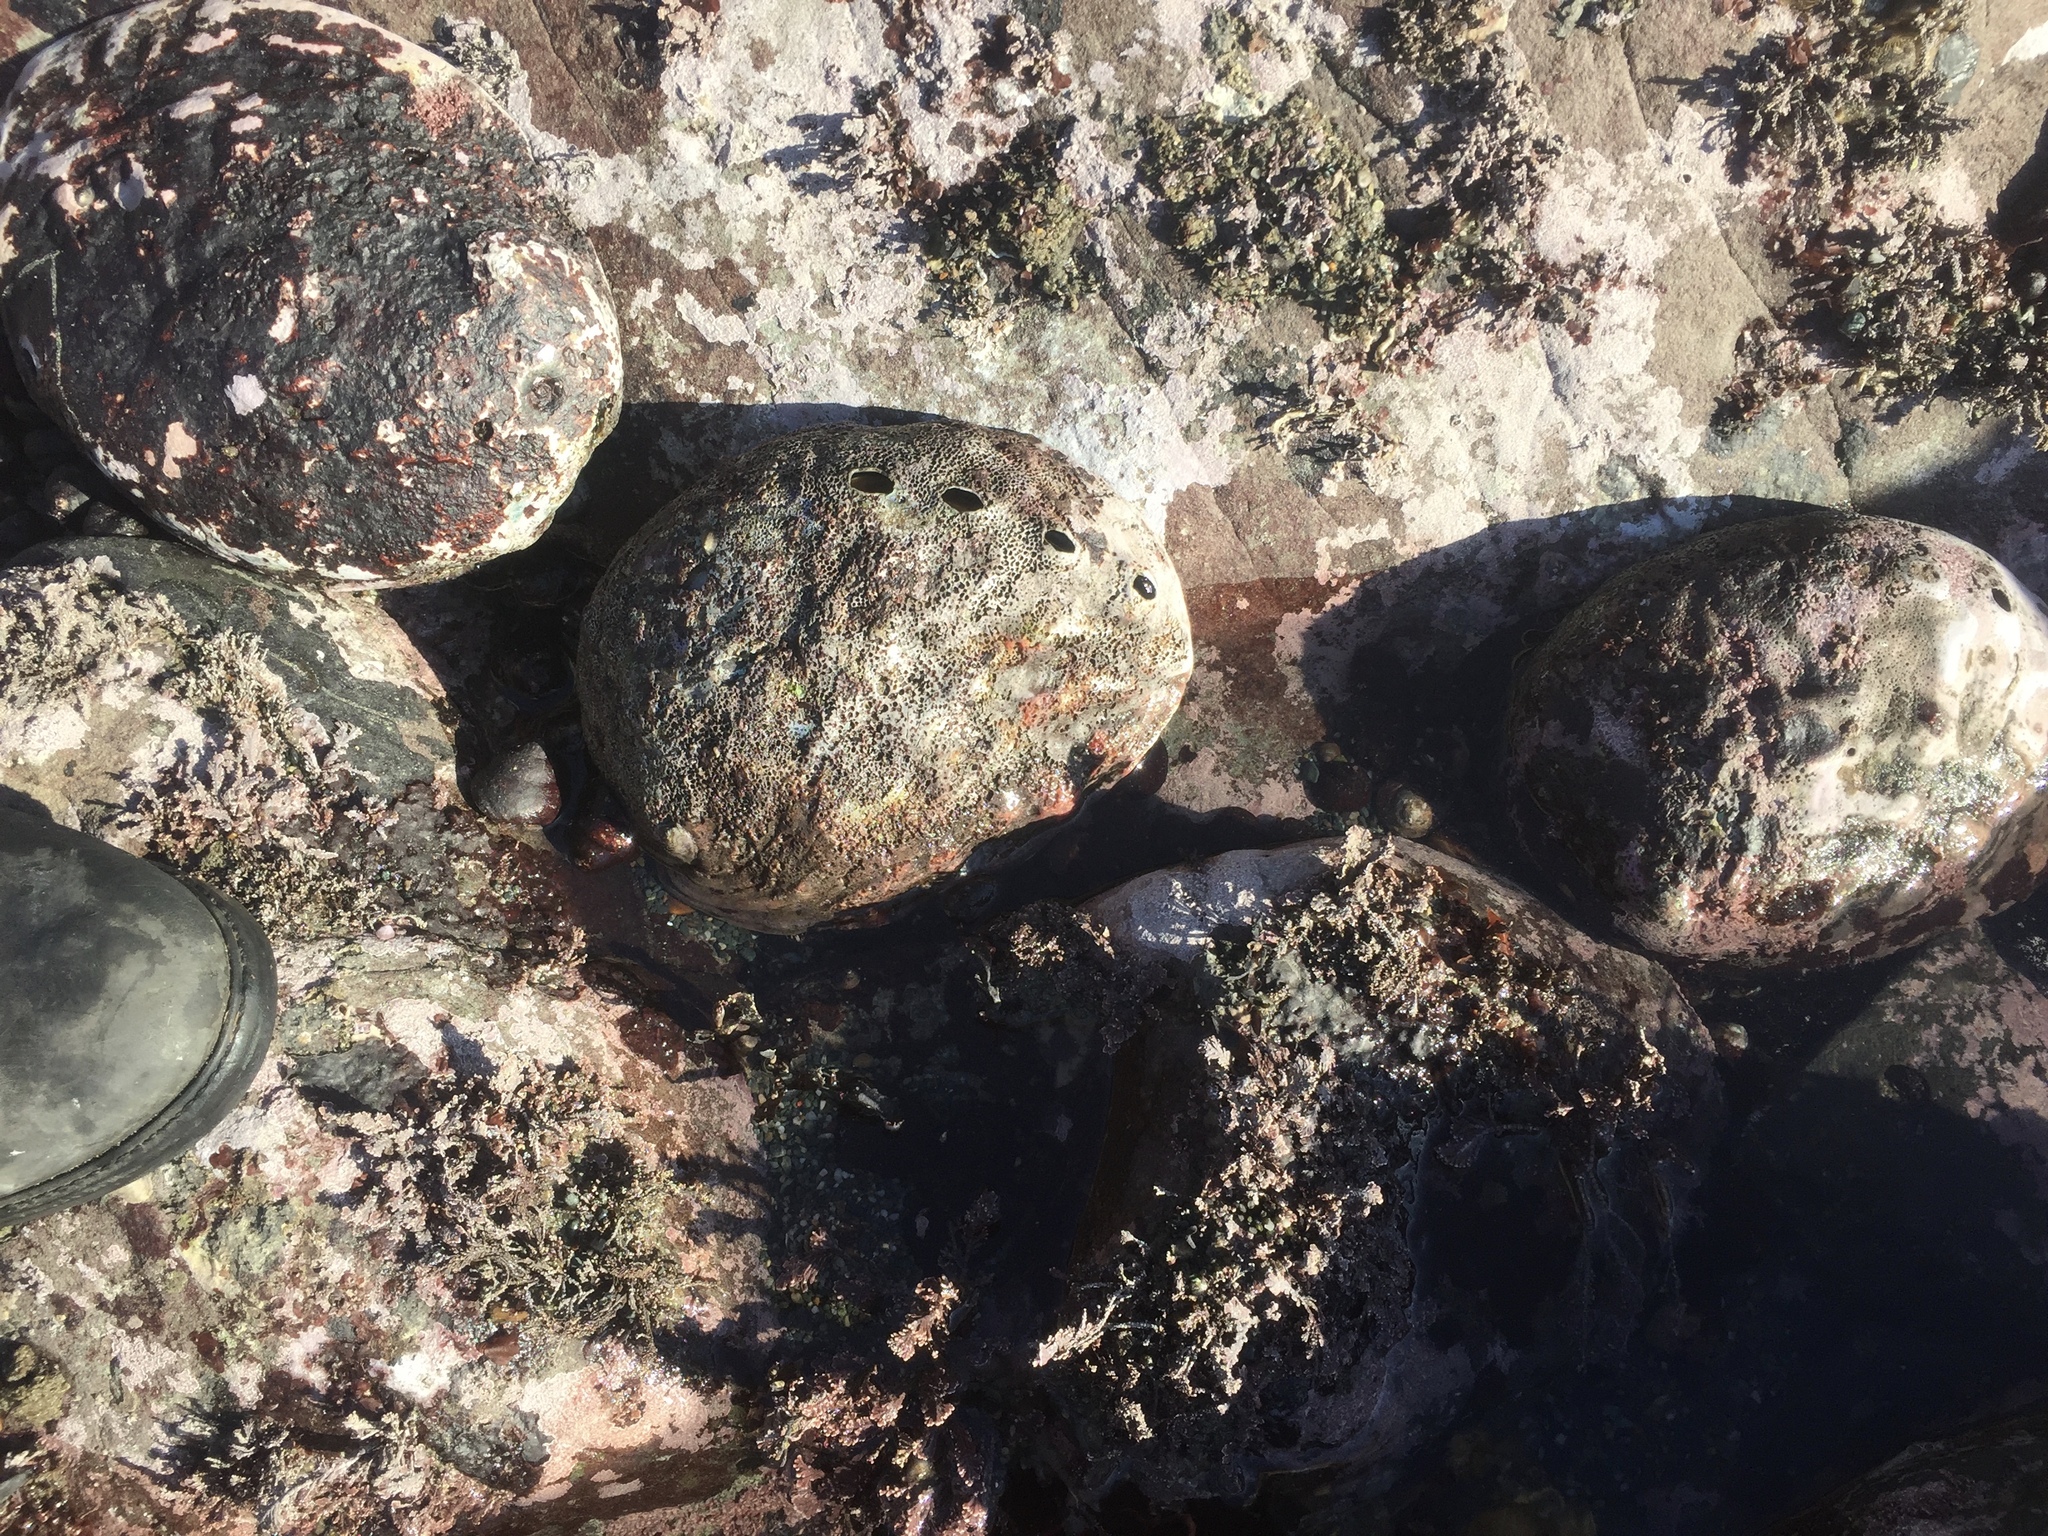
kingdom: Animalia
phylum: Mollusca
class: Gastropoda
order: Lepetellida
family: Haliotidae
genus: Haliotis
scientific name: Haliotis rufescens
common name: Red abalone
